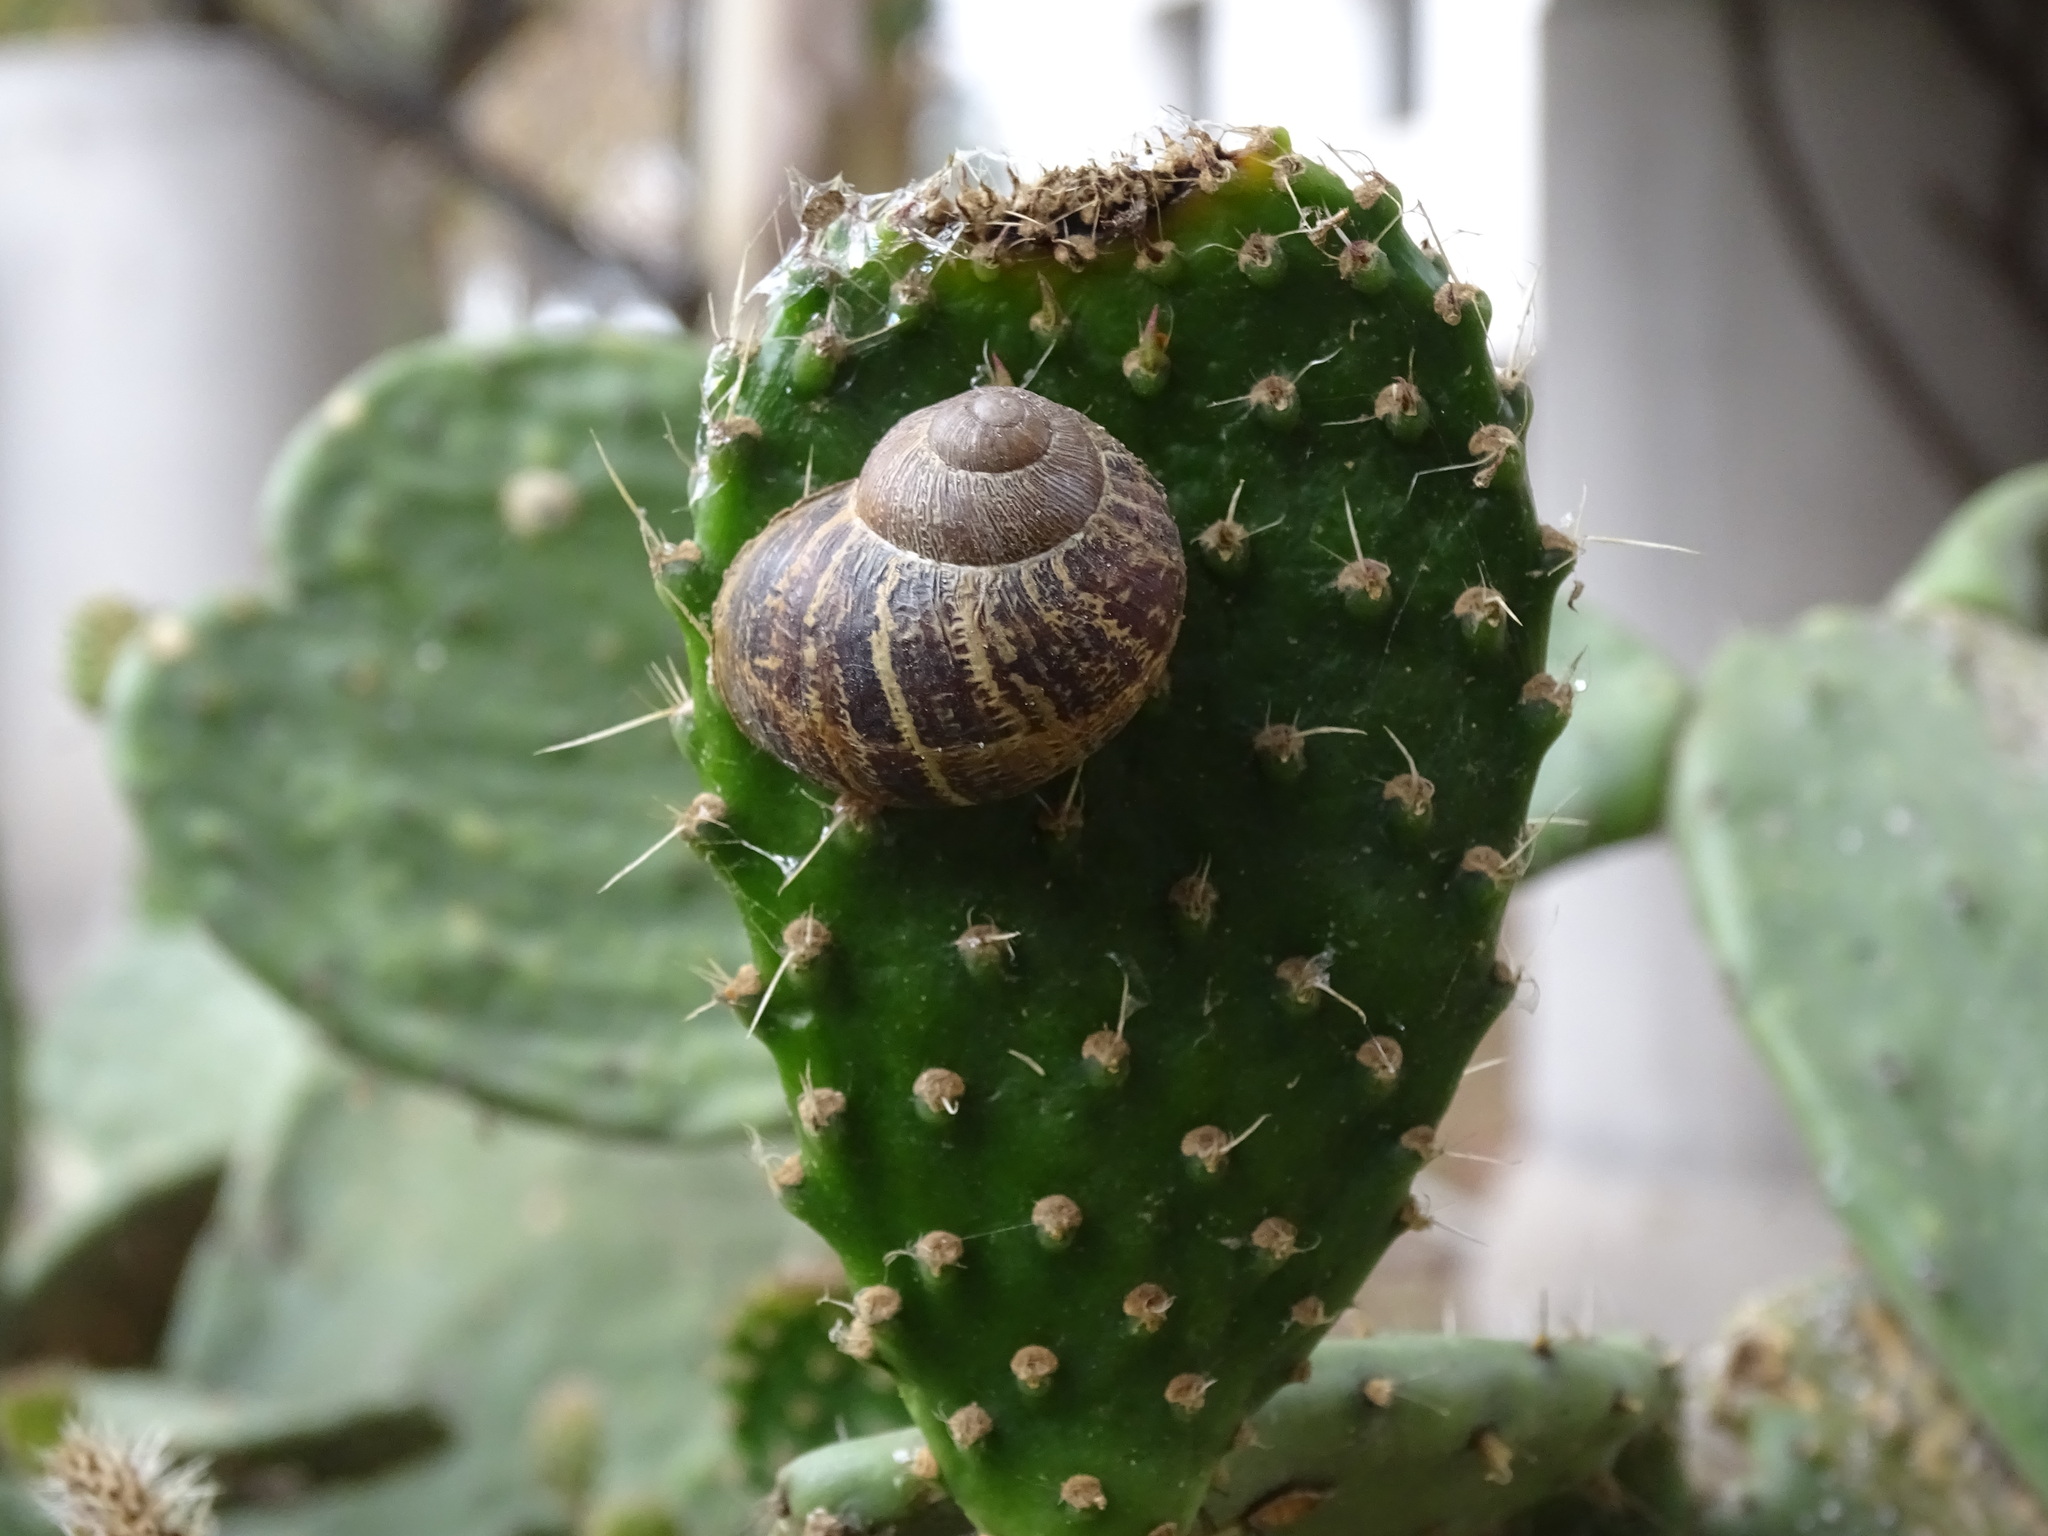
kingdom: Animalia
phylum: Mollusca
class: Gastropoda
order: Stylommatophora
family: Helicidae
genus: Cornu
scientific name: Cornu aspersum
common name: Brown garden snail
